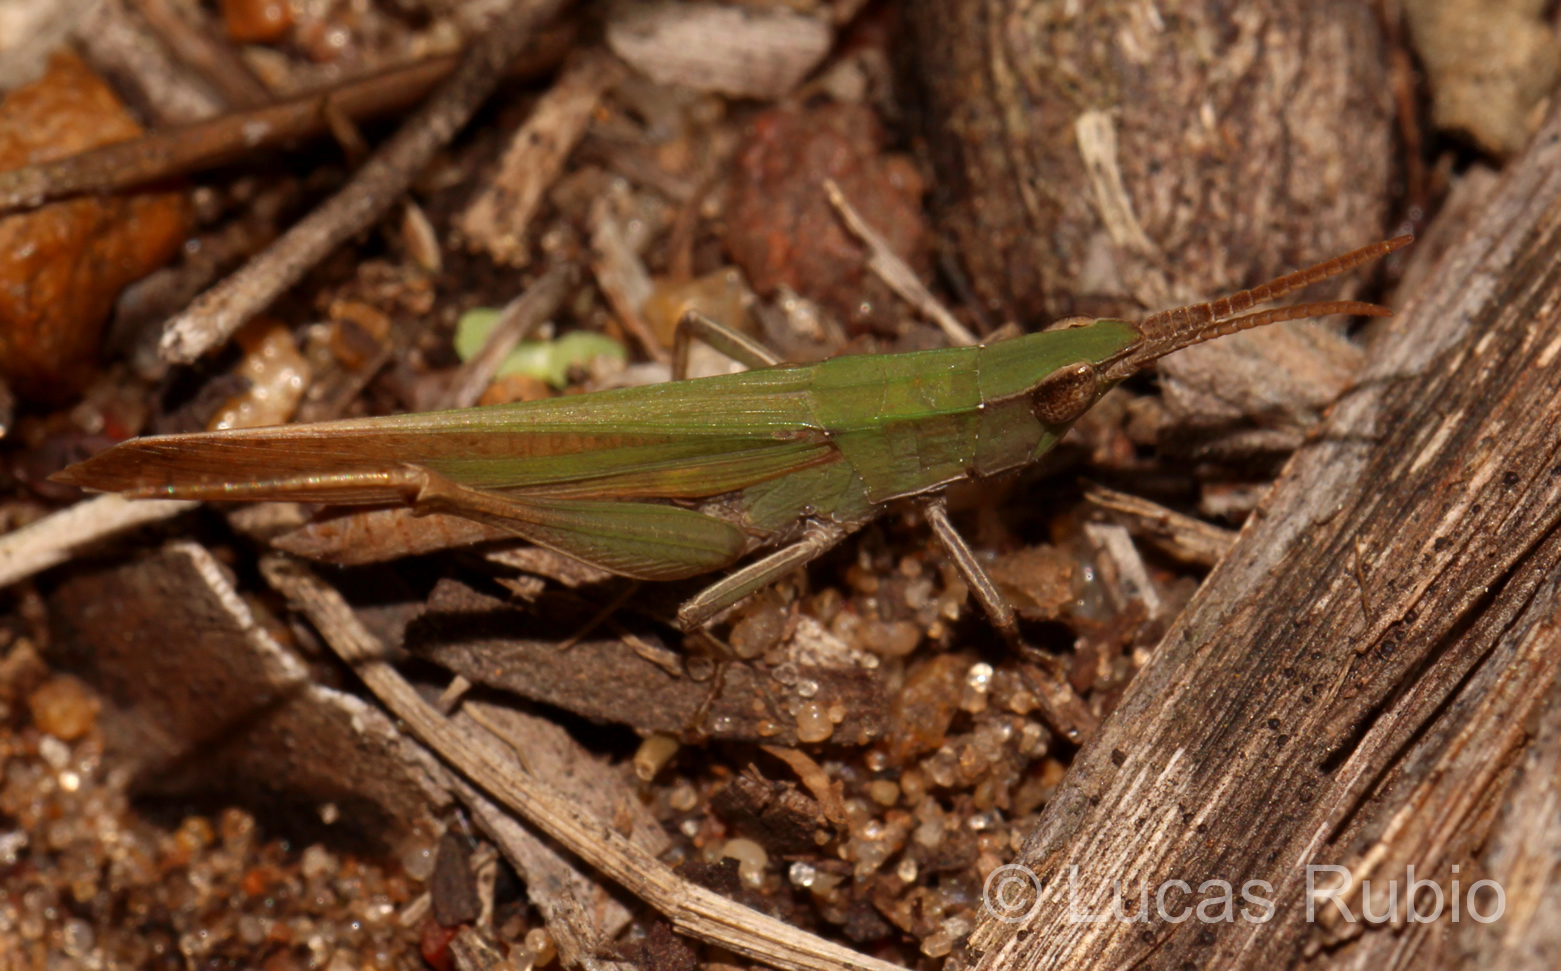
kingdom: Animalia
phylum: Arthropoda
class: Insecta
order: Orthoptera
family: Acrididae
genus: Allotruxalis
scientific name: Allotruxalis gracilis
